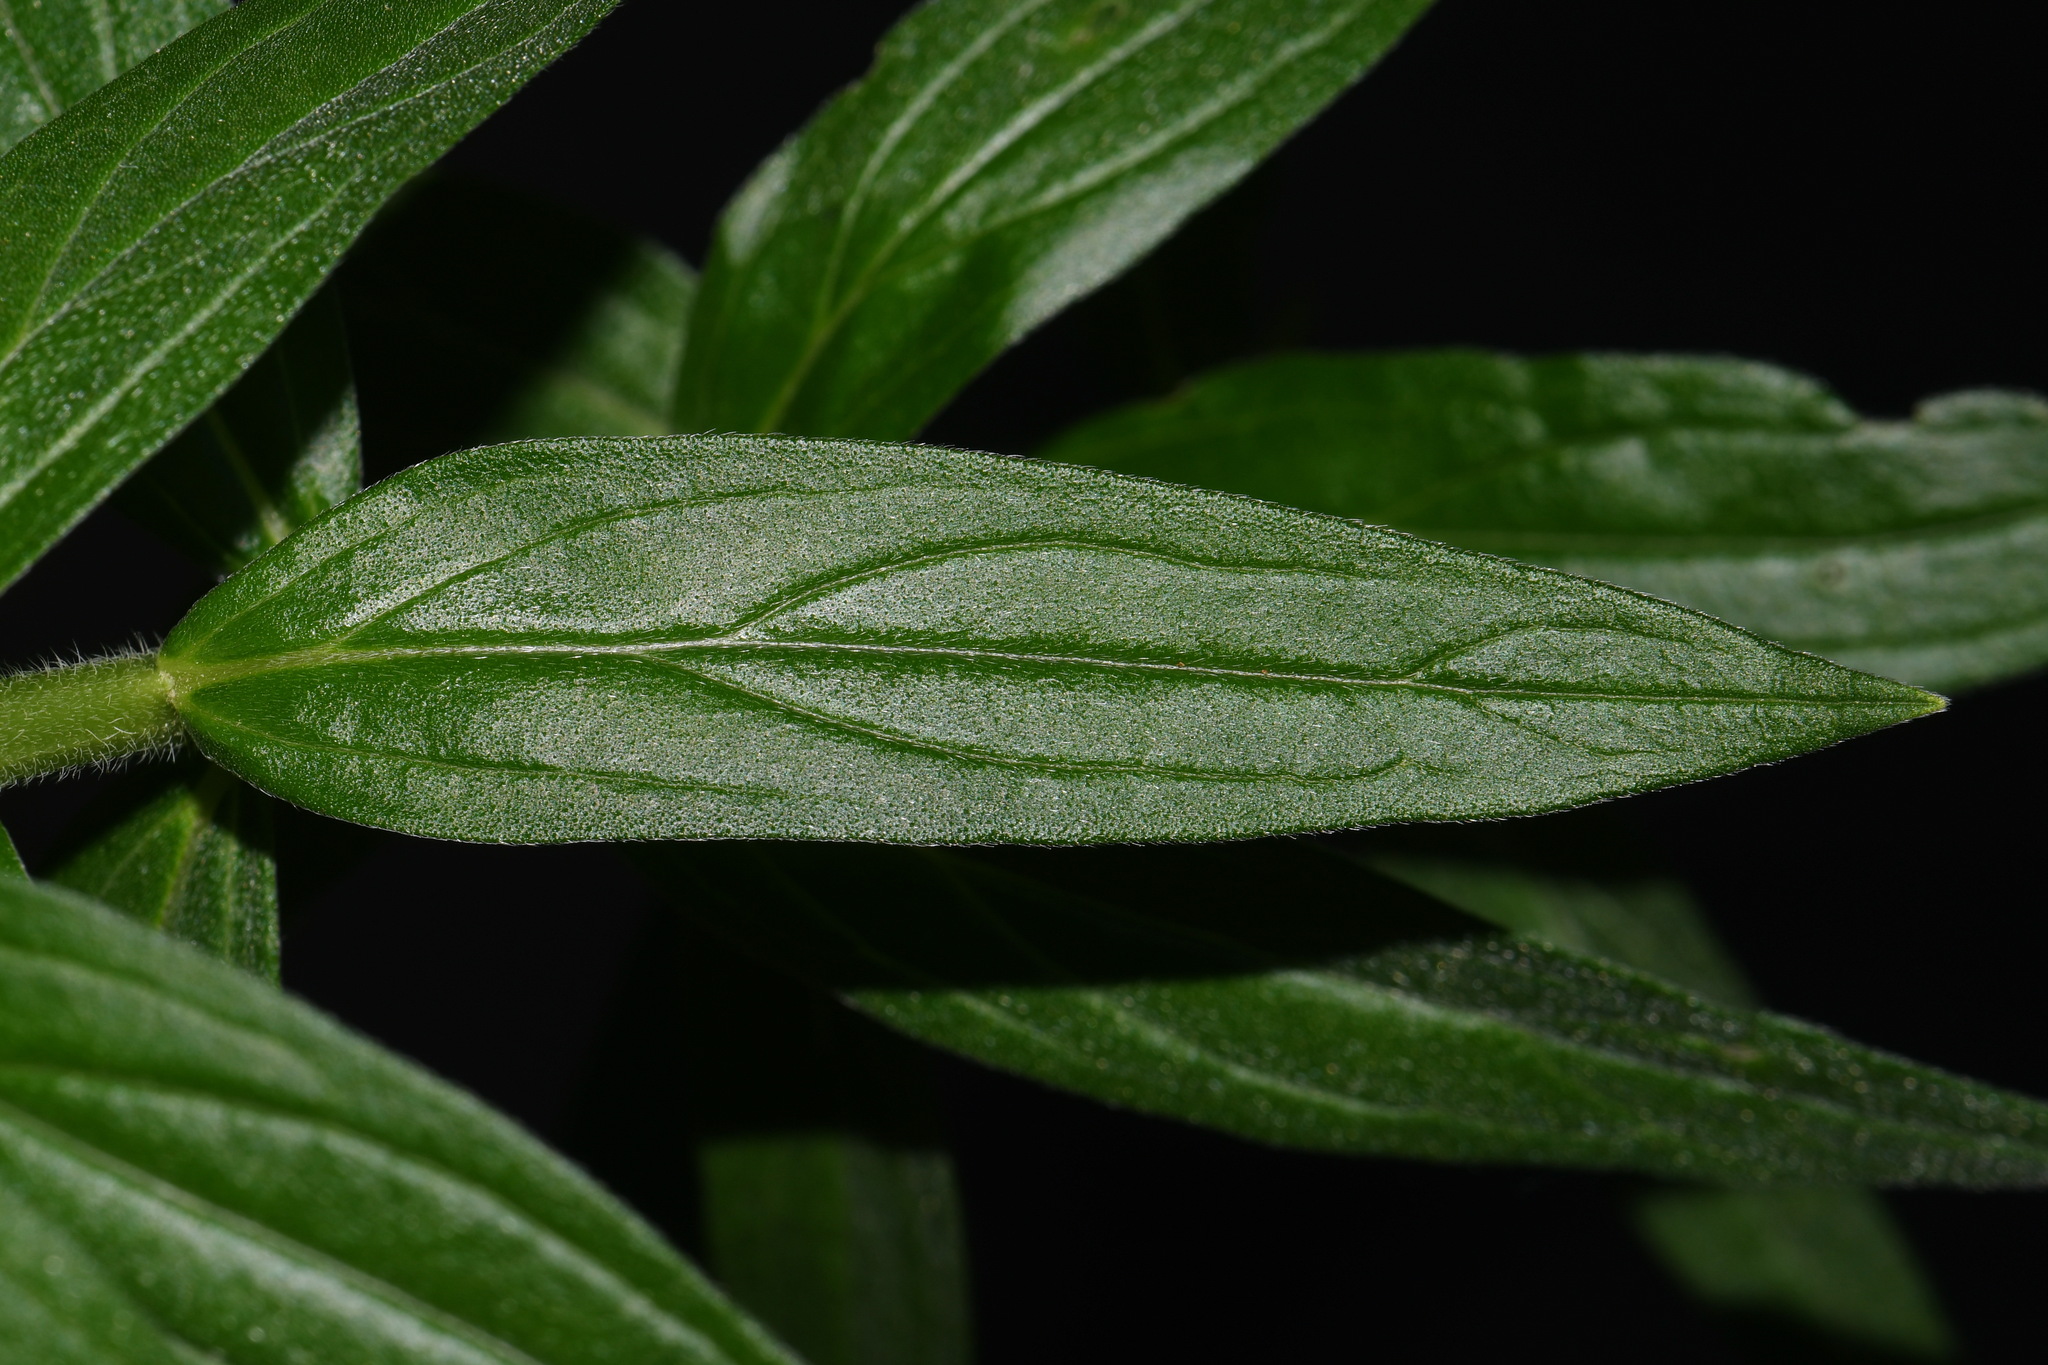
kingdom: Plantae
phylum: Tracheophyta
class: Magnoliopsida
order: Boraginales
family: Boraginaceae
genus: Lithospermum
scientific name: Lithospermum officinale
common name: Common gromwell
